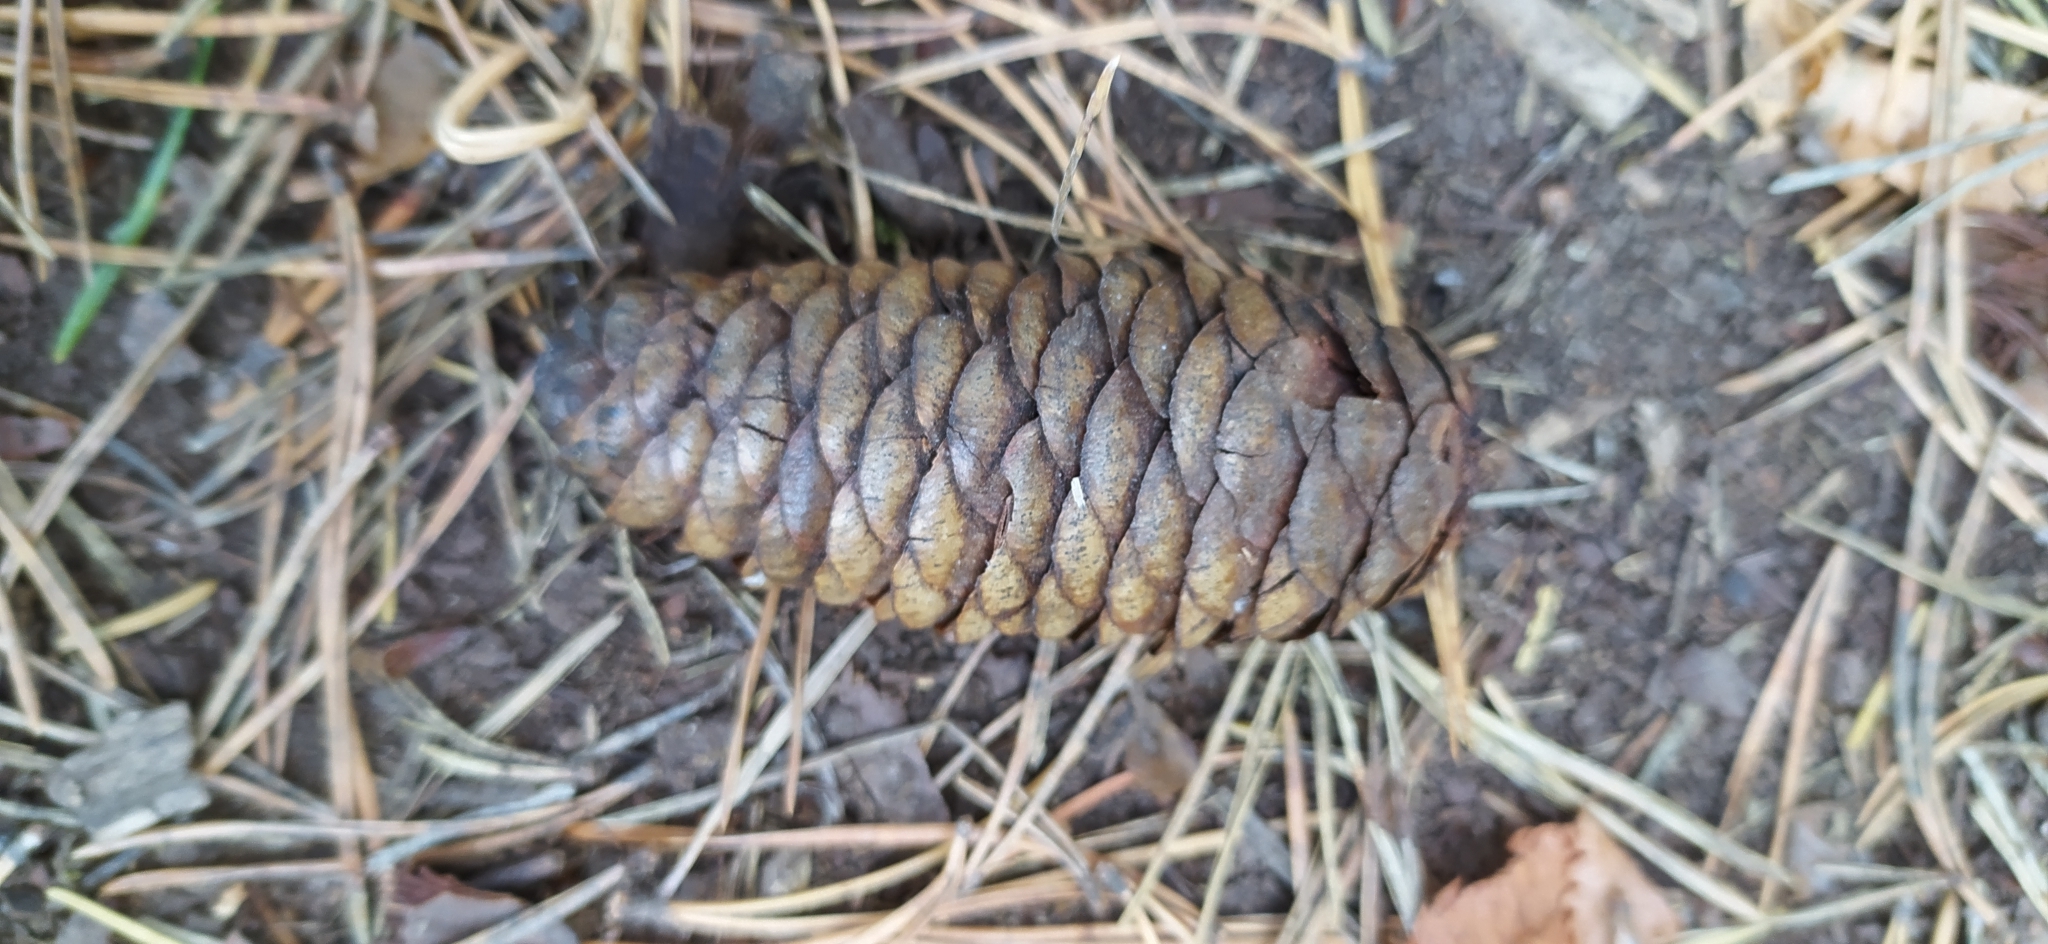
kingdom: Plantae
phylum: Tracheophyta
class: Pinopsida
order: Pinales
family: Pinaceae
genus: Picea
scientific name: Picea obovata
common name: Siberian spruce
